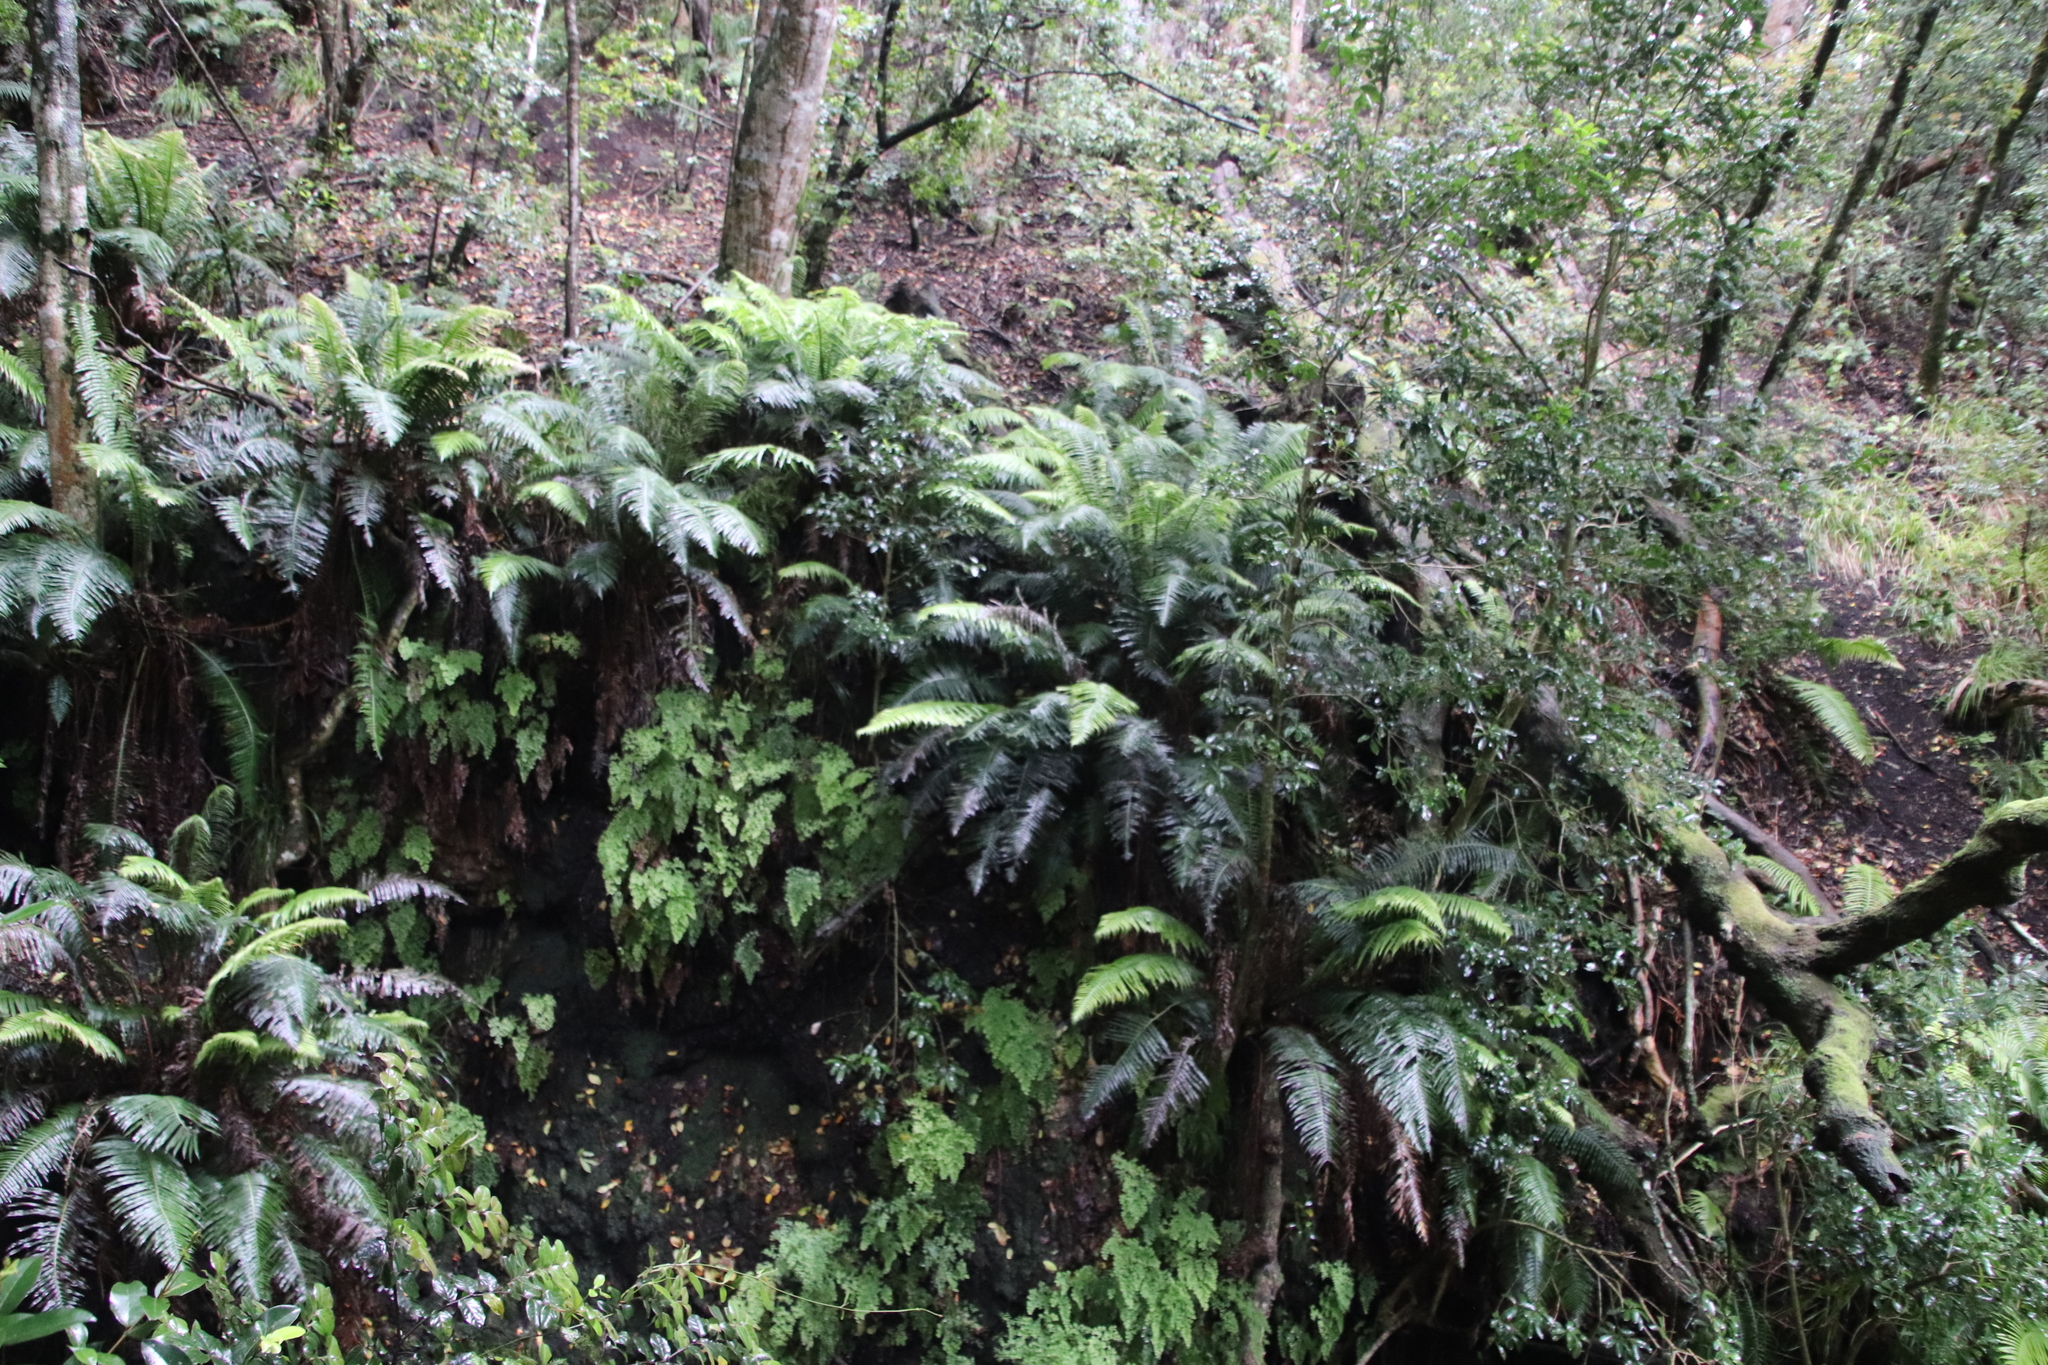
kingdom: Plantae
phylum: Tracheophyta
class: Polypodiopsida
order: Polypodiales
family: Blechnaceae
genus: Lomaridium
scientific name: Lomaridium attenuatum
